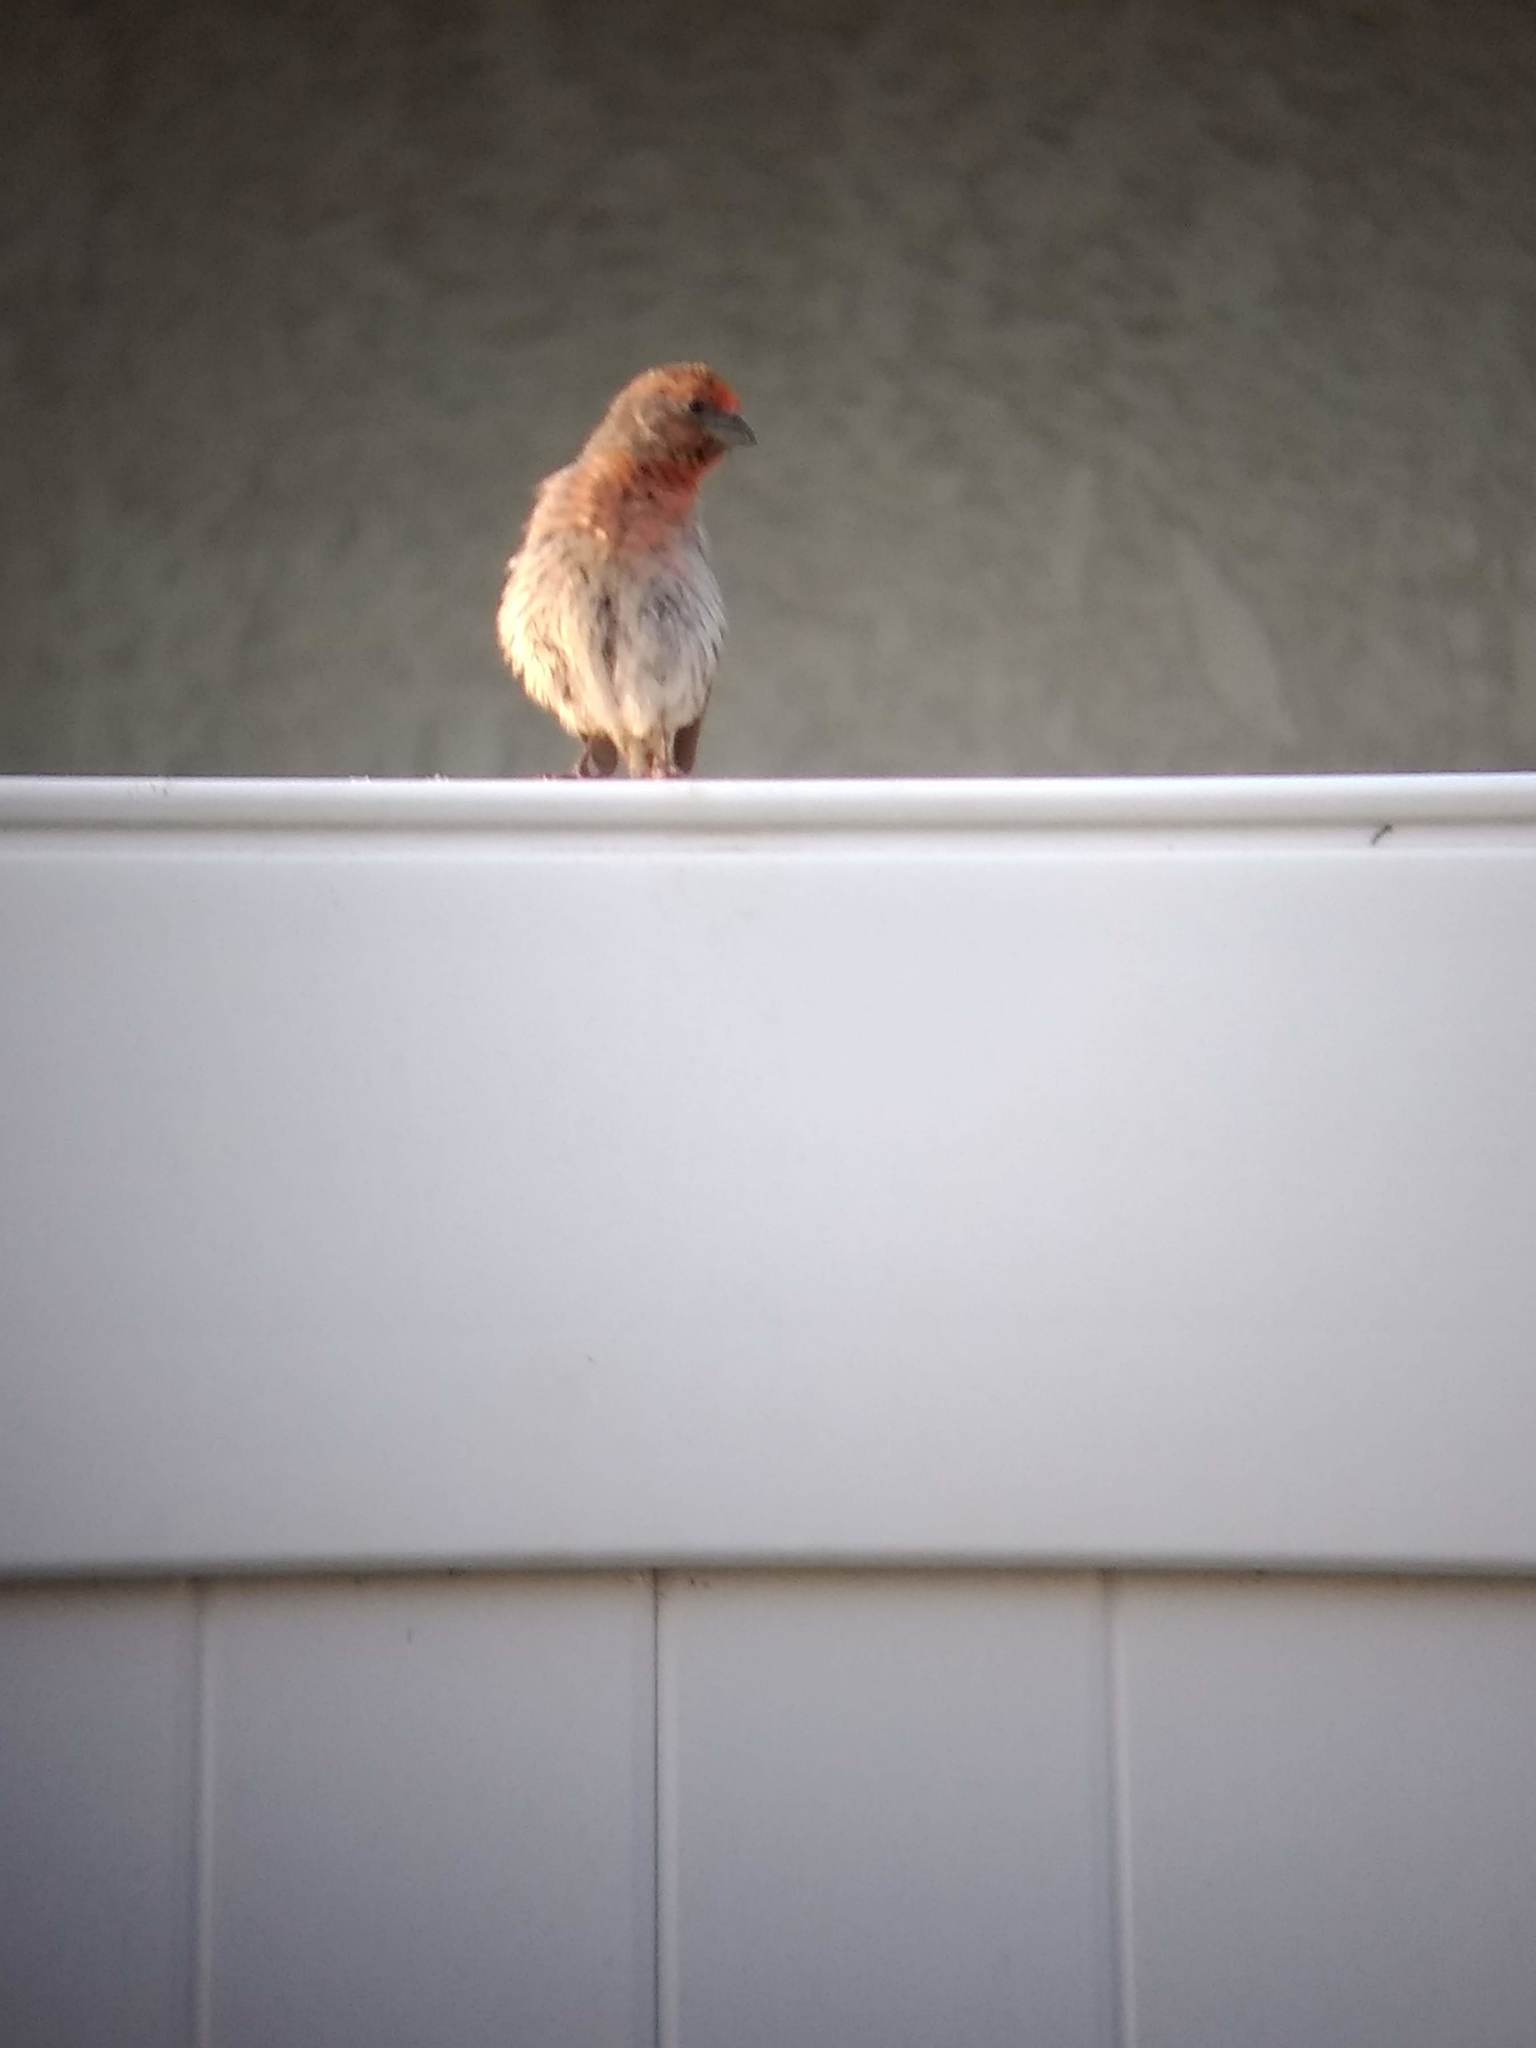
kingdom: Animalia
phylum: Chordata
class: Aves
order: Passeriformes
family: Fringillidae
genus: Haemorhous
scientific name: Haemorhous mexicanus
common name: House finch
